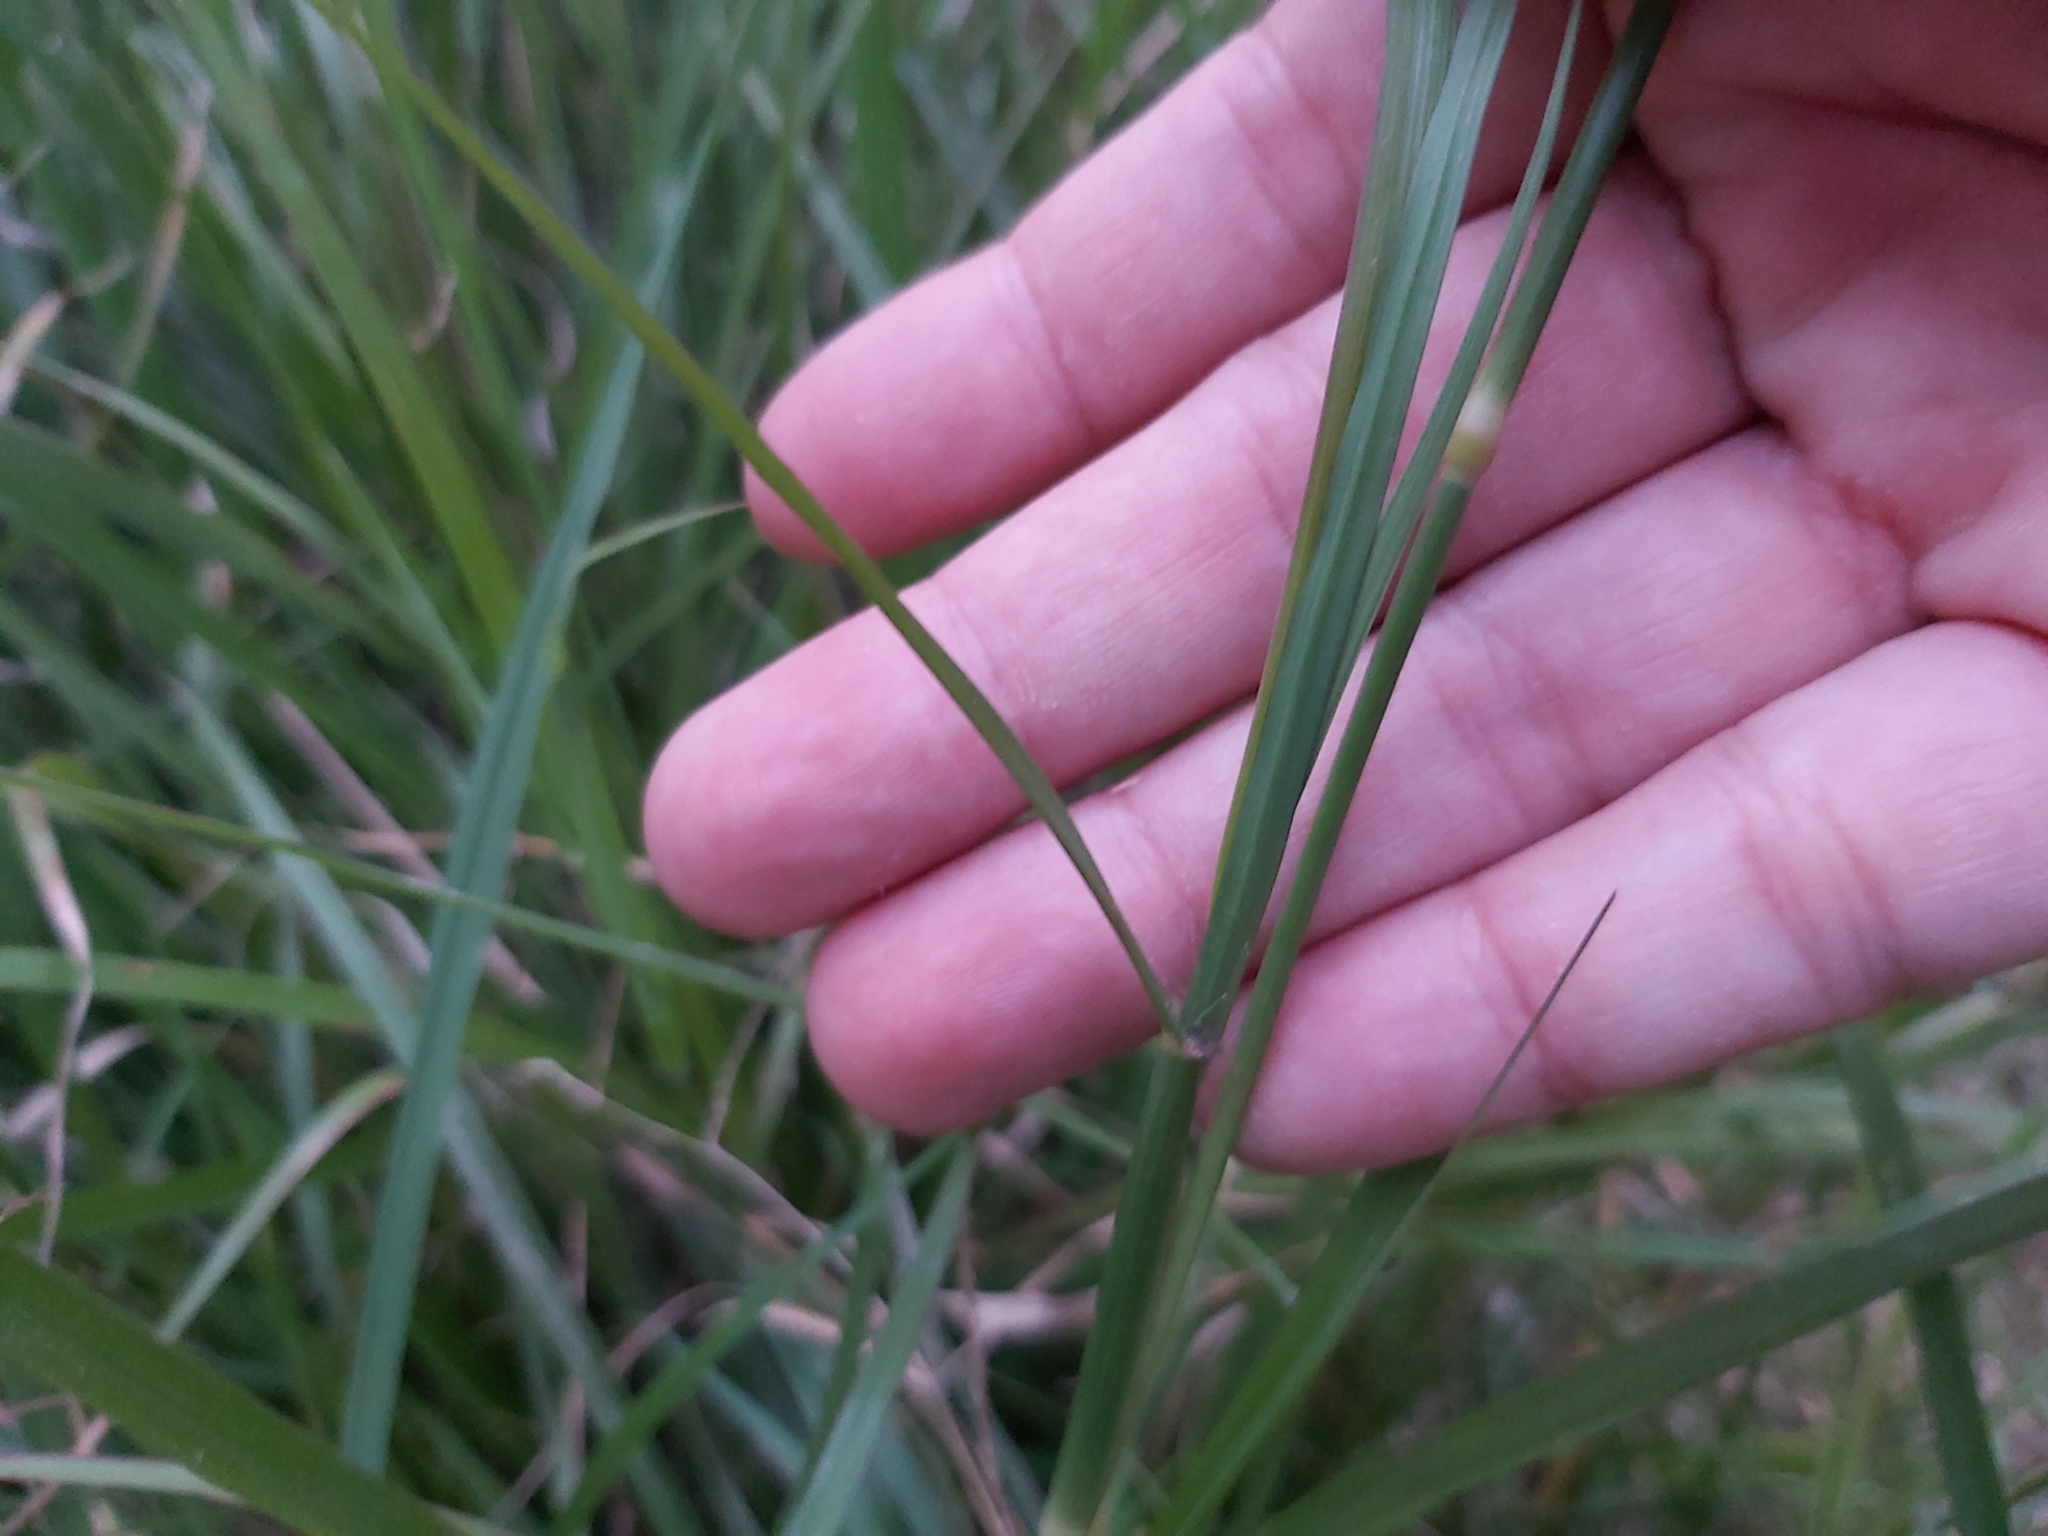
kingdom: Plantae
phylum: Tracheophyta
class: Liliopsida
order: Poales
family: Poaceae
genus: Chloris
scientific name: Chloris gayana
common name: Rhodes grass
